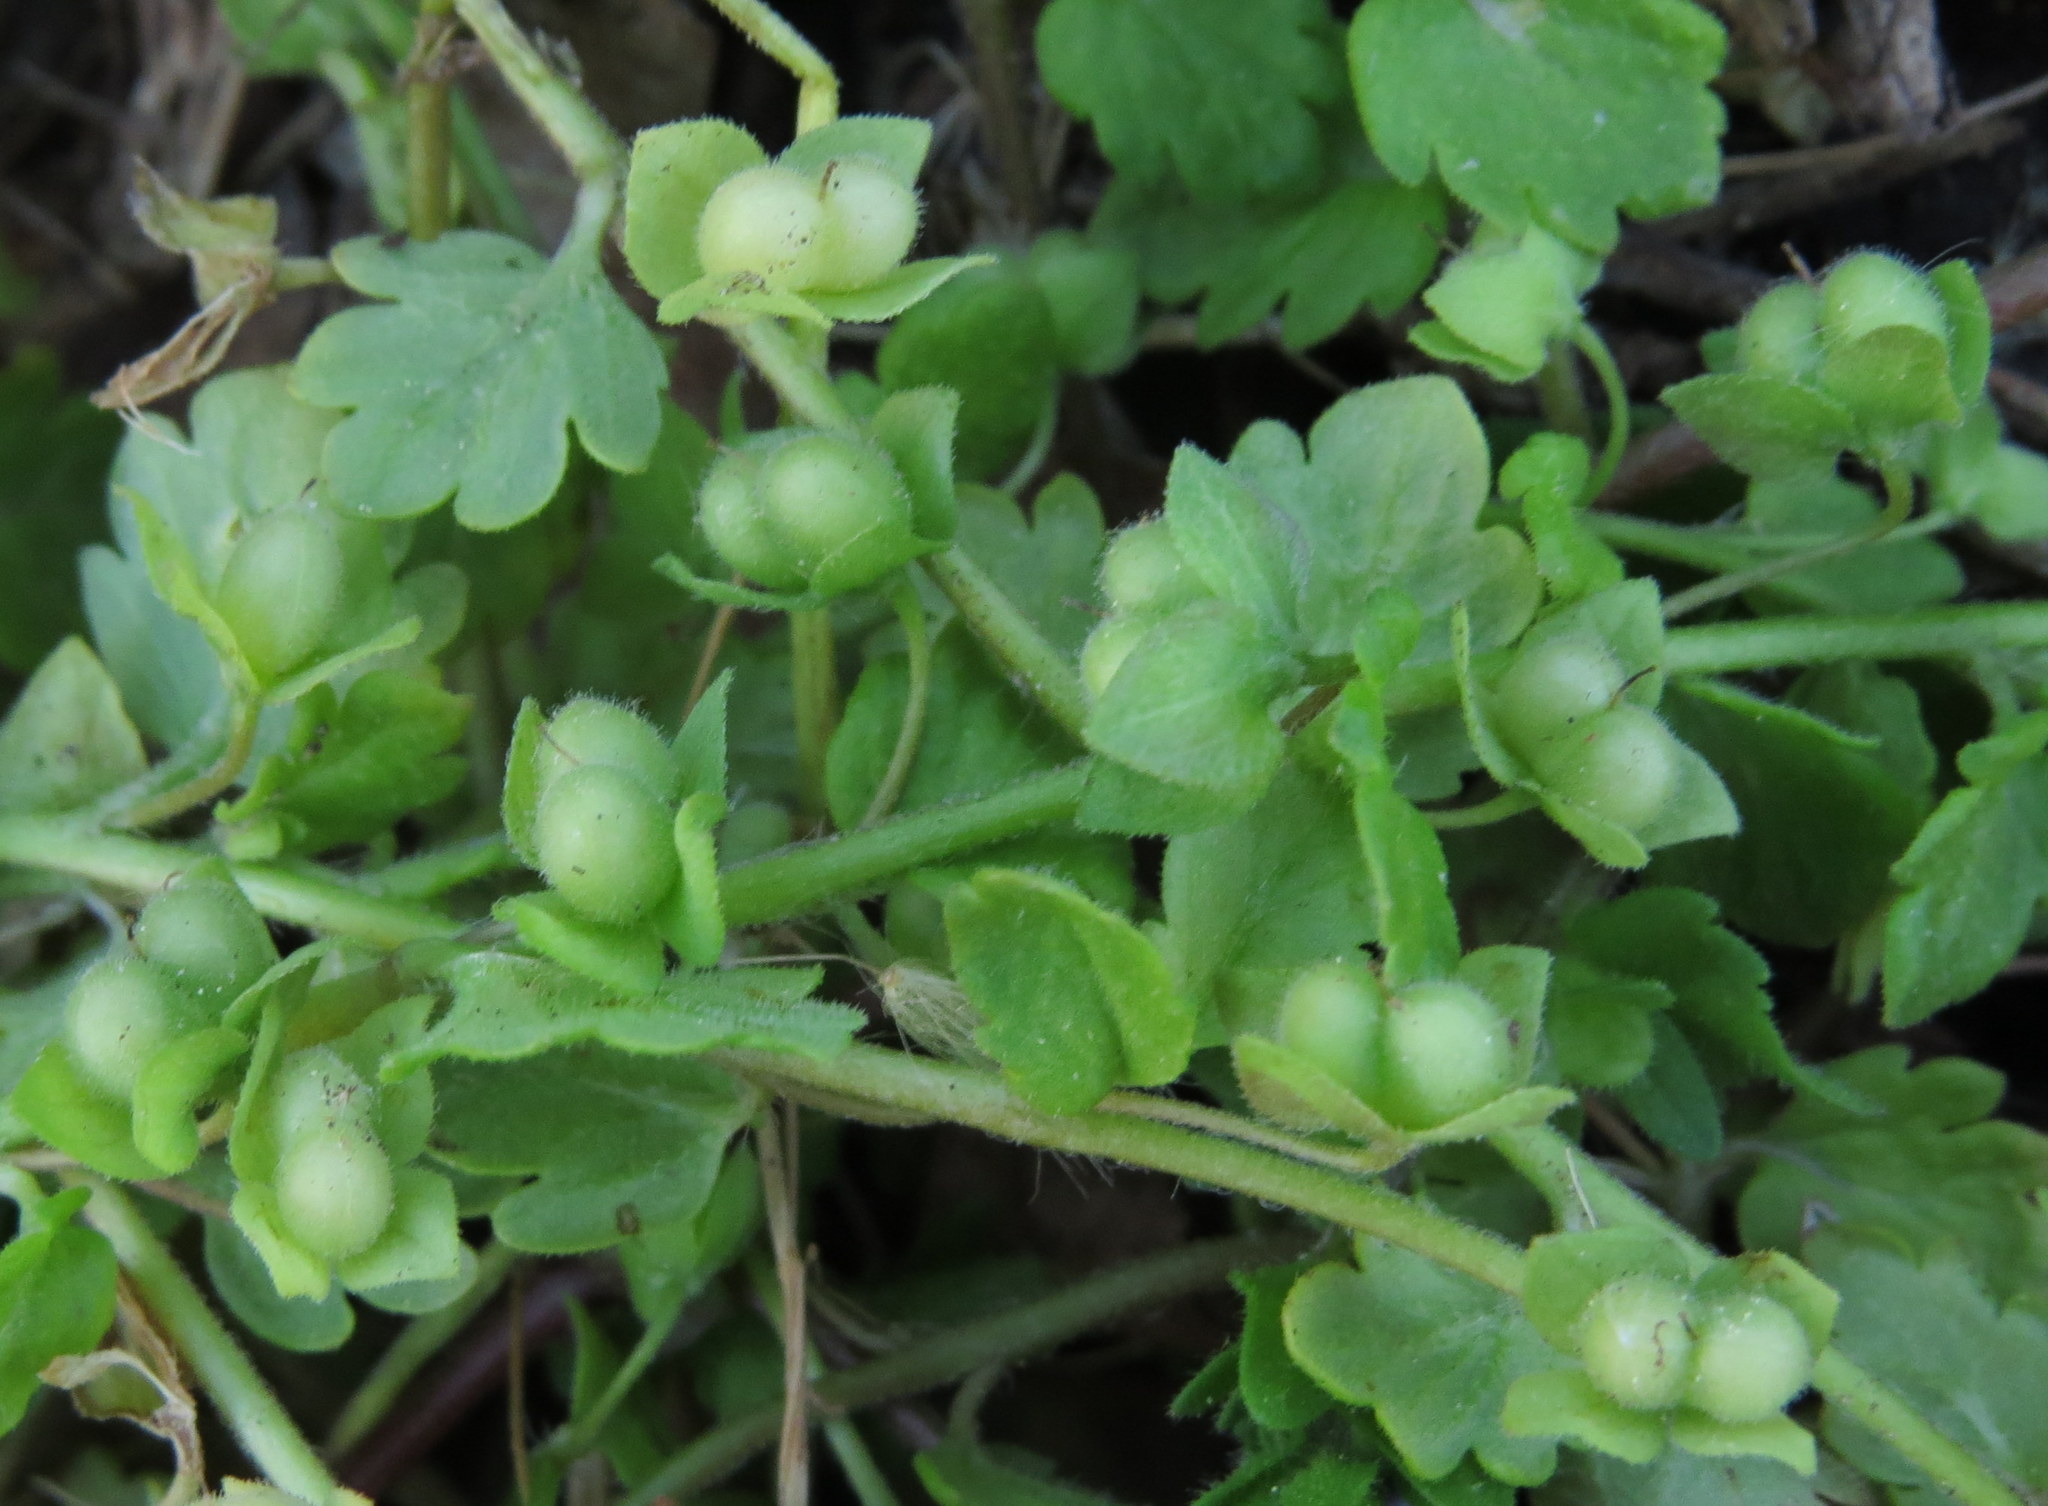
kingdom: Plantae
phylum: Tracheophyta
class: Magnoliopsida
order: Lamiales
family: Plantaginaceae
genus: Veronica
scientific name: Veronica polita
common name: Grey field-speedwell
